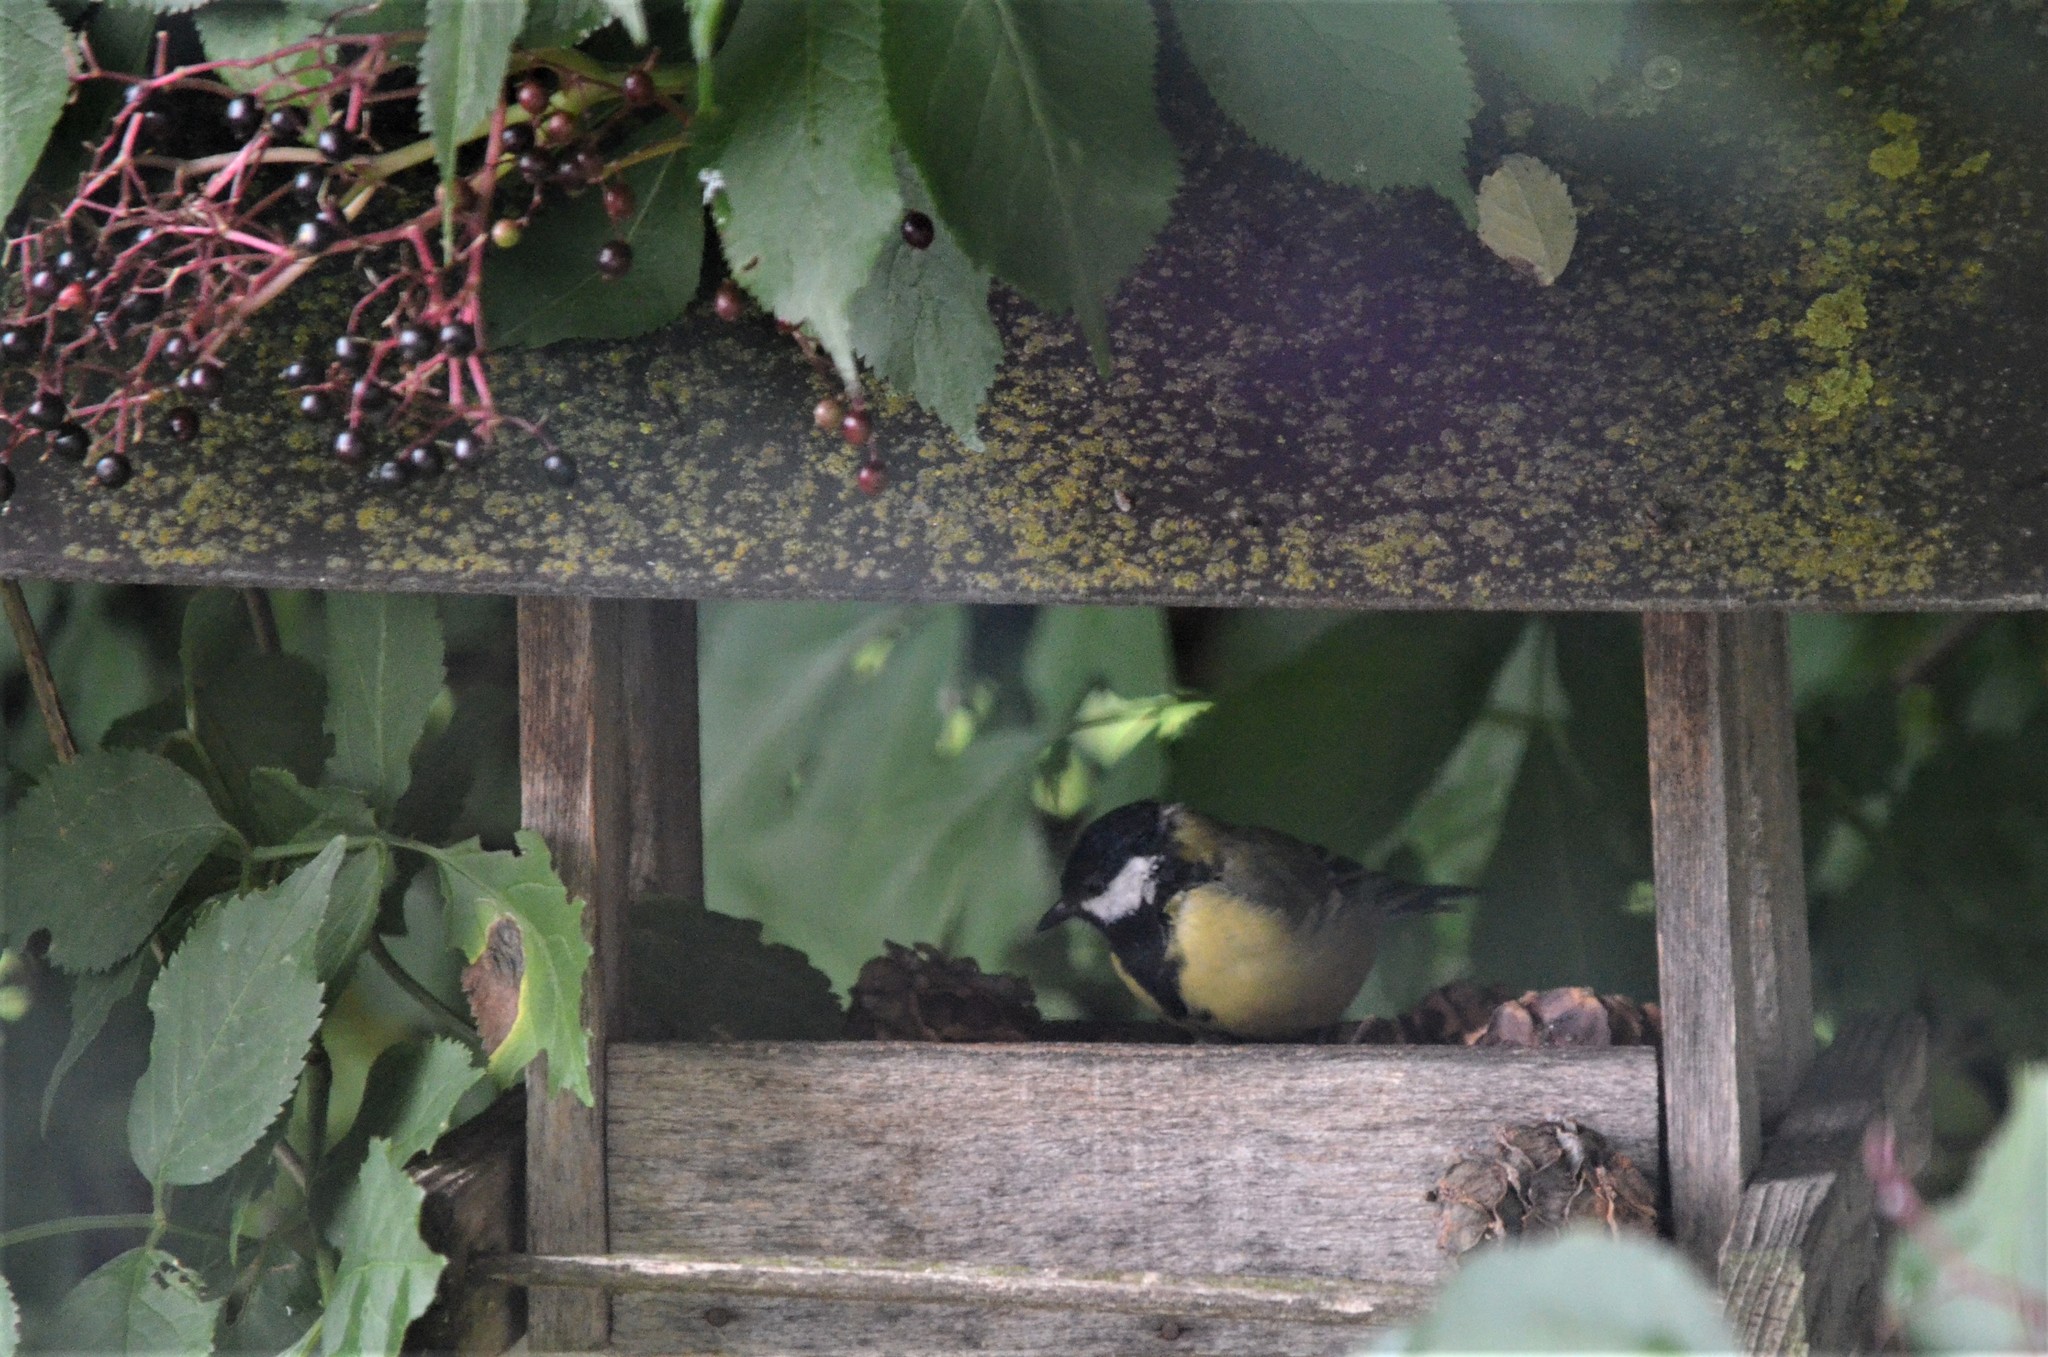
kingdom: Animalia
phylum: Chordata
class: Aves
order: Passeriformes
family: Paridae
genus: Parus
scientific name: Parus major
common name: Great tit
